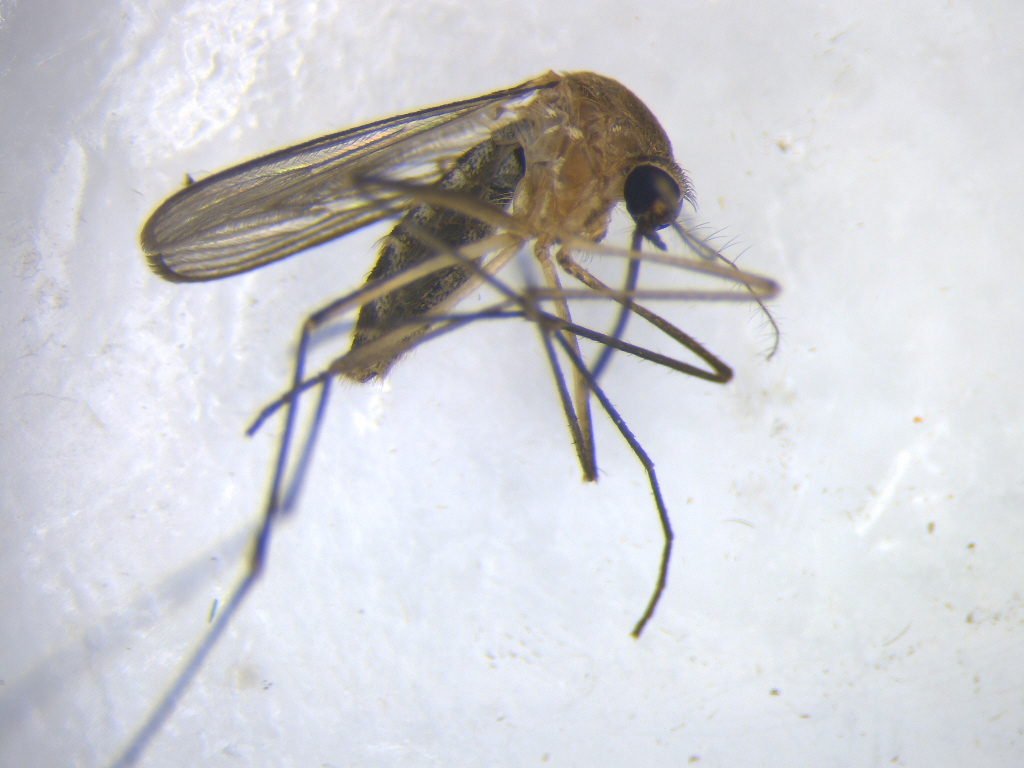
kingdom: Animalia
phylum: Arthropoda
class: Insecta
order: Diptera
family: Culicidae
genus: Culex
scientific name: Culex quinquefasciatus
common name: Southern house mosquito
